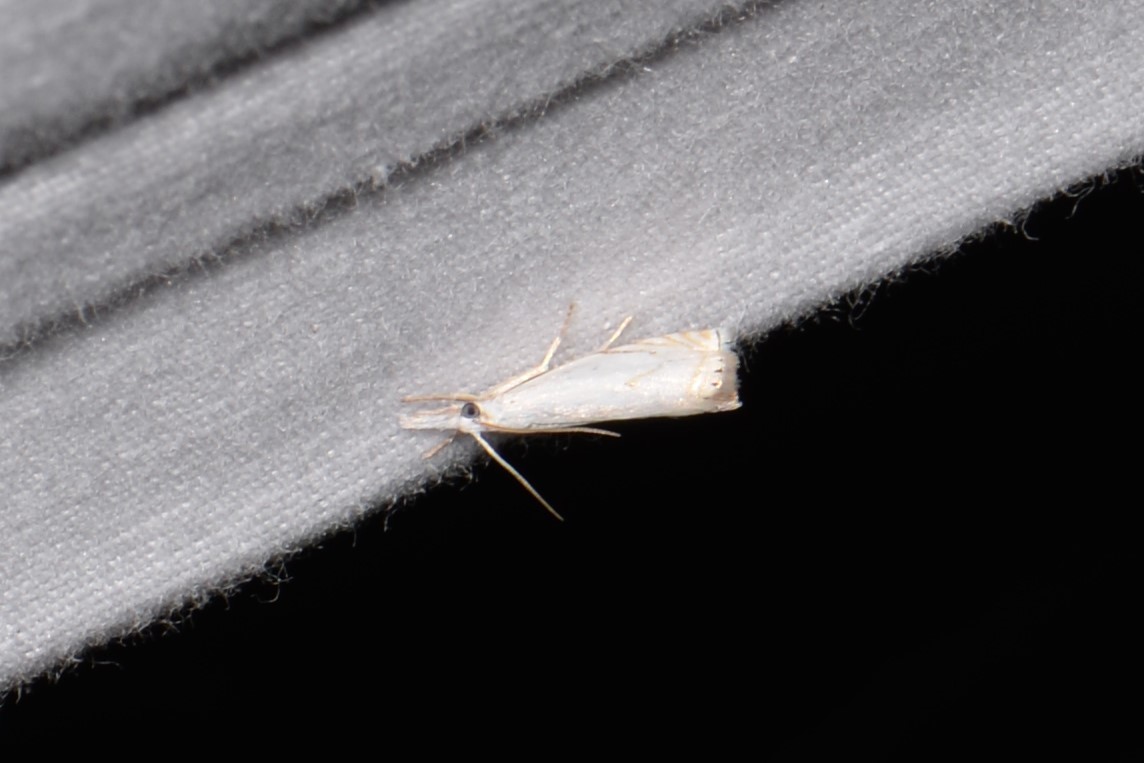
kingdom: Animalia
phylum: Arthropoda
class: Insecta
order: Lepidoptera
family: Crambidae
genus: Crambus
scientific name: Crambus albellus
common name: Small white grass-veneer
